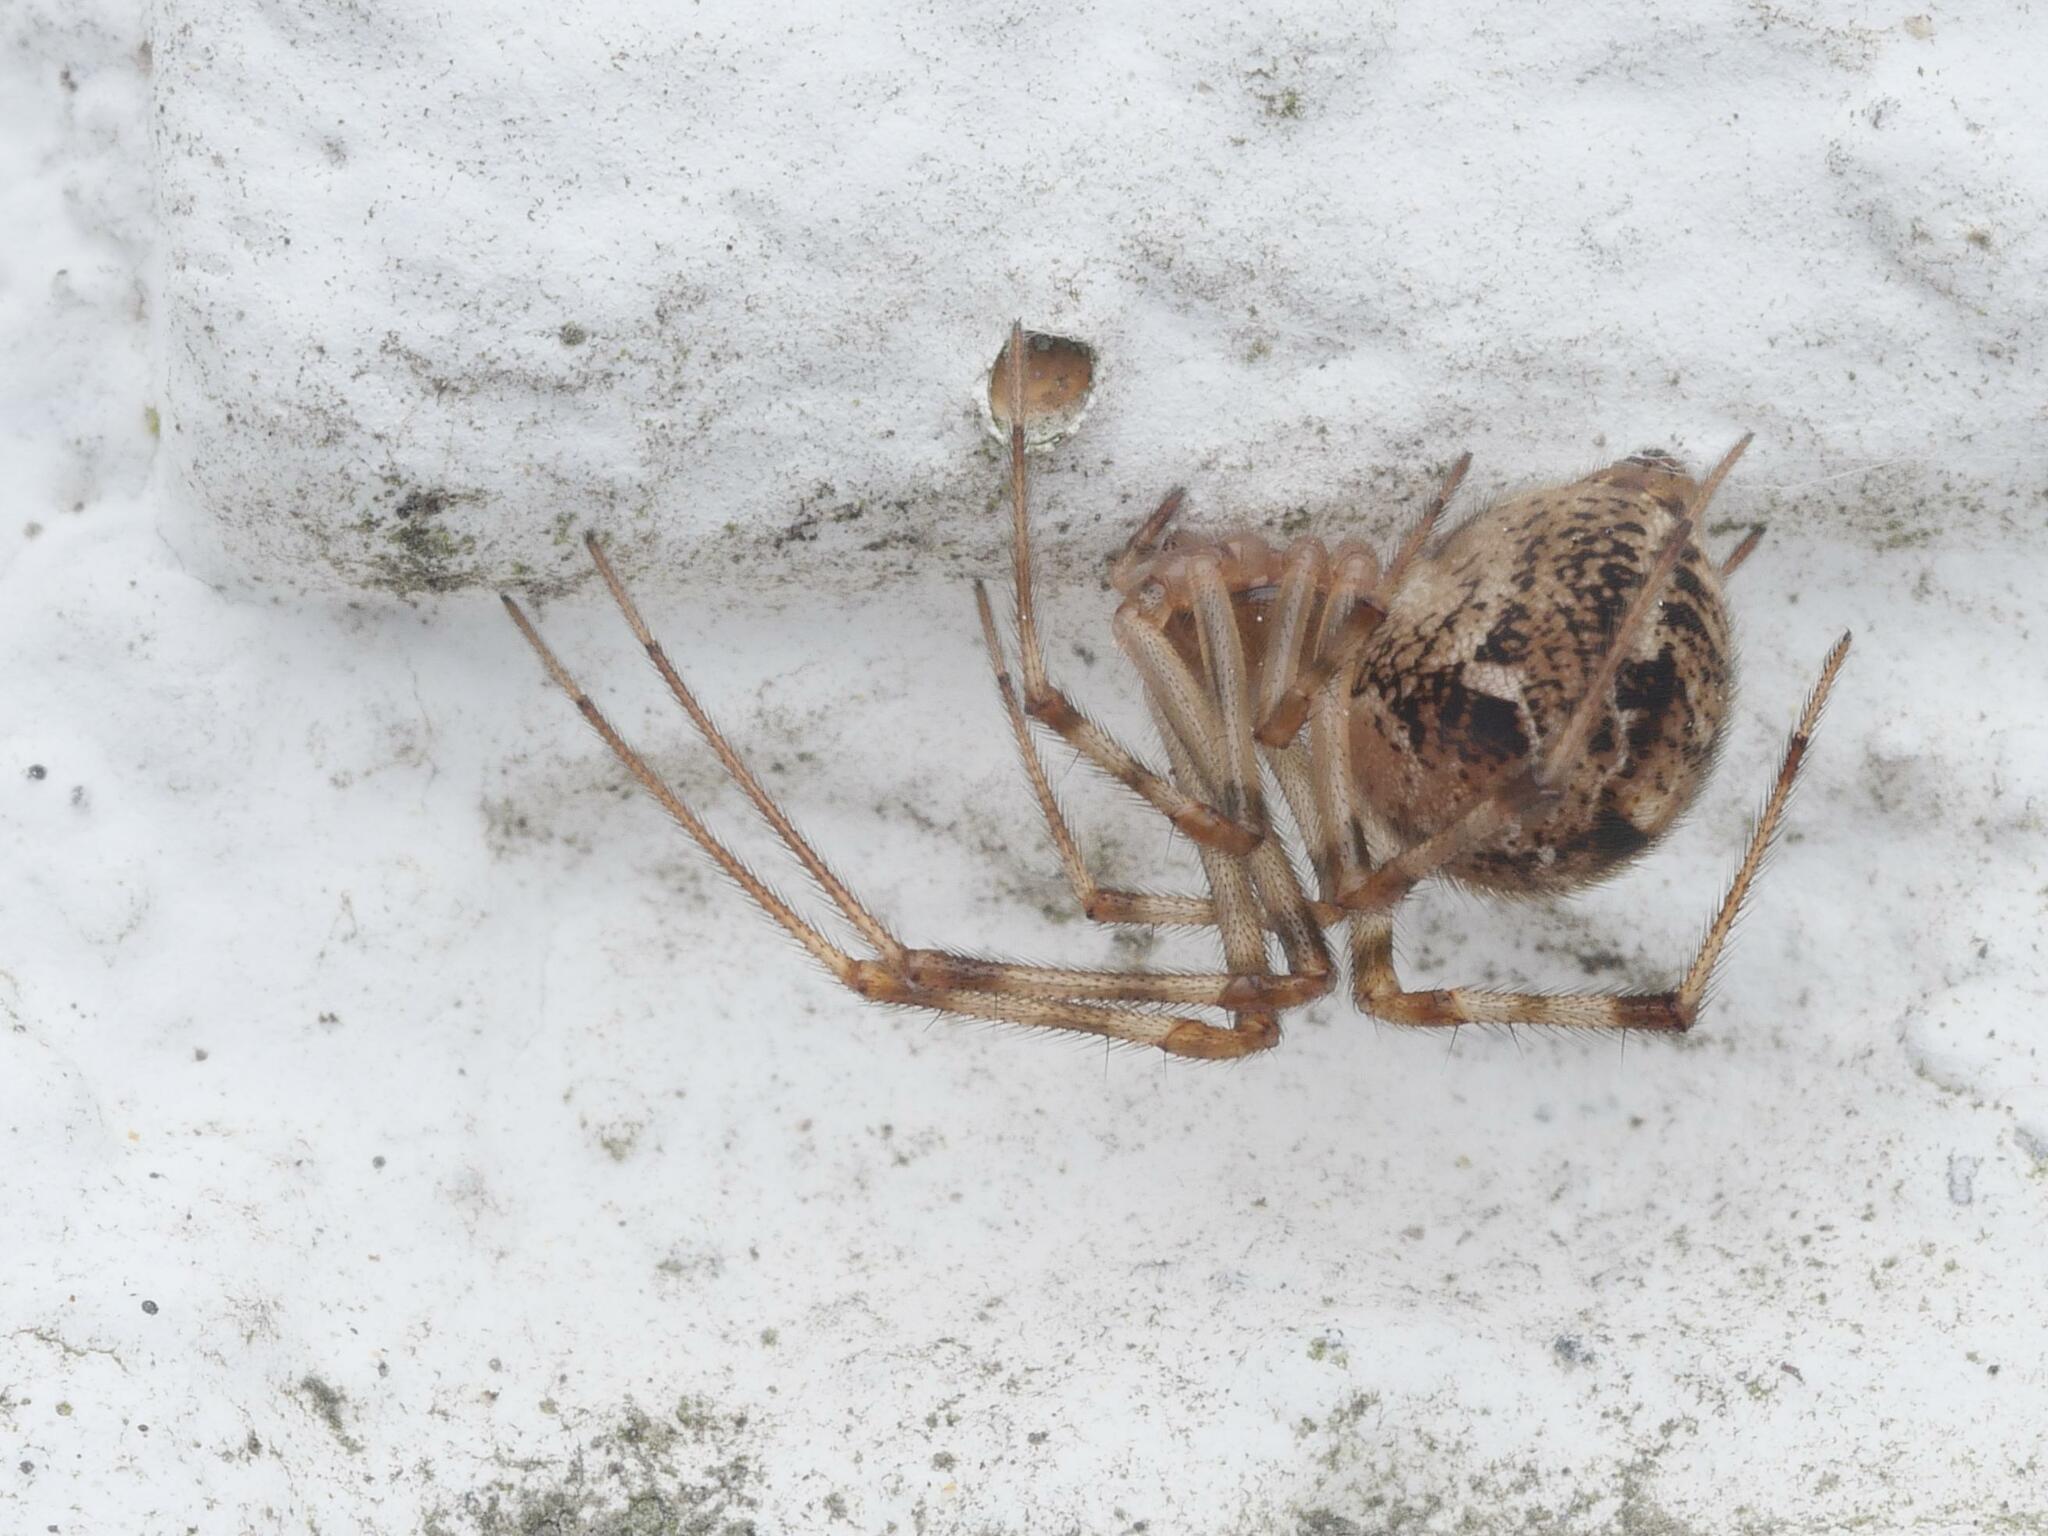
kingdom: Animalia
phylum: Arthropoda
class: Arachnida
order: Araneae
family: Theridiidae
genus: Parasteatoda
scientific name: Parasteatoda tepidariorum
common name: Common house spider
